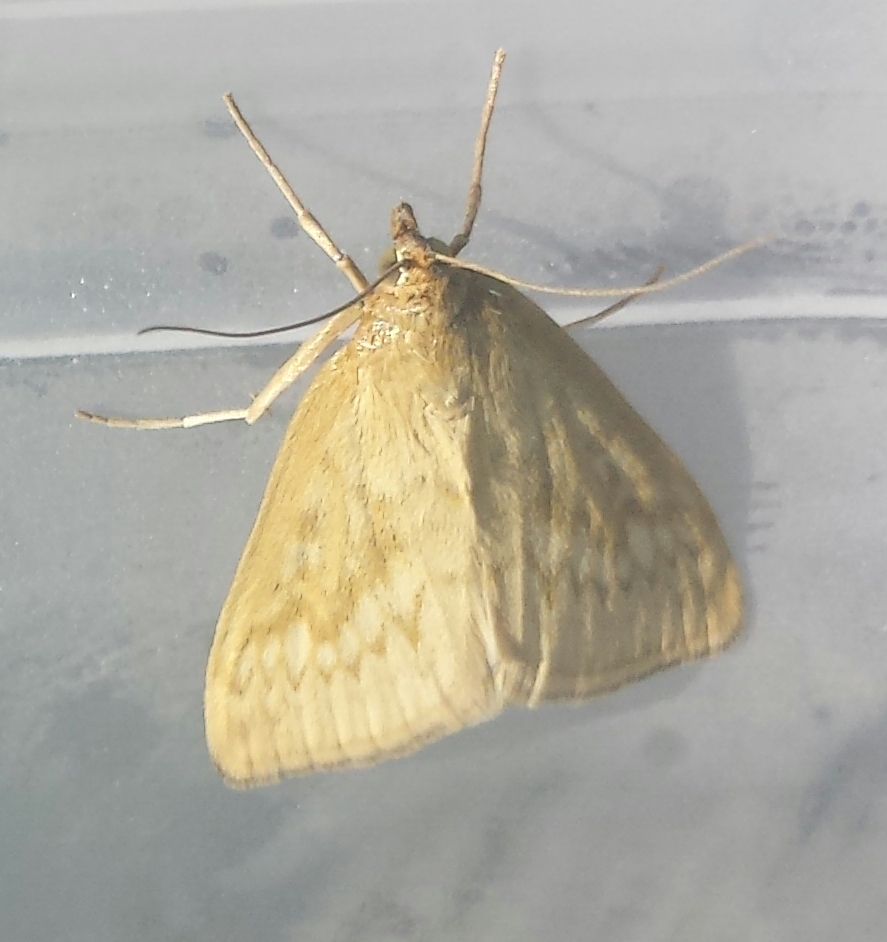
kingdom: Animalia
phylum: Arthropoda
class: Insecta
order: Lepidoptera
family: Crambidae
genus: Sitochroa
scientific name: Sitochroa chortalis
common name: Dimorphic sitochroa moth
